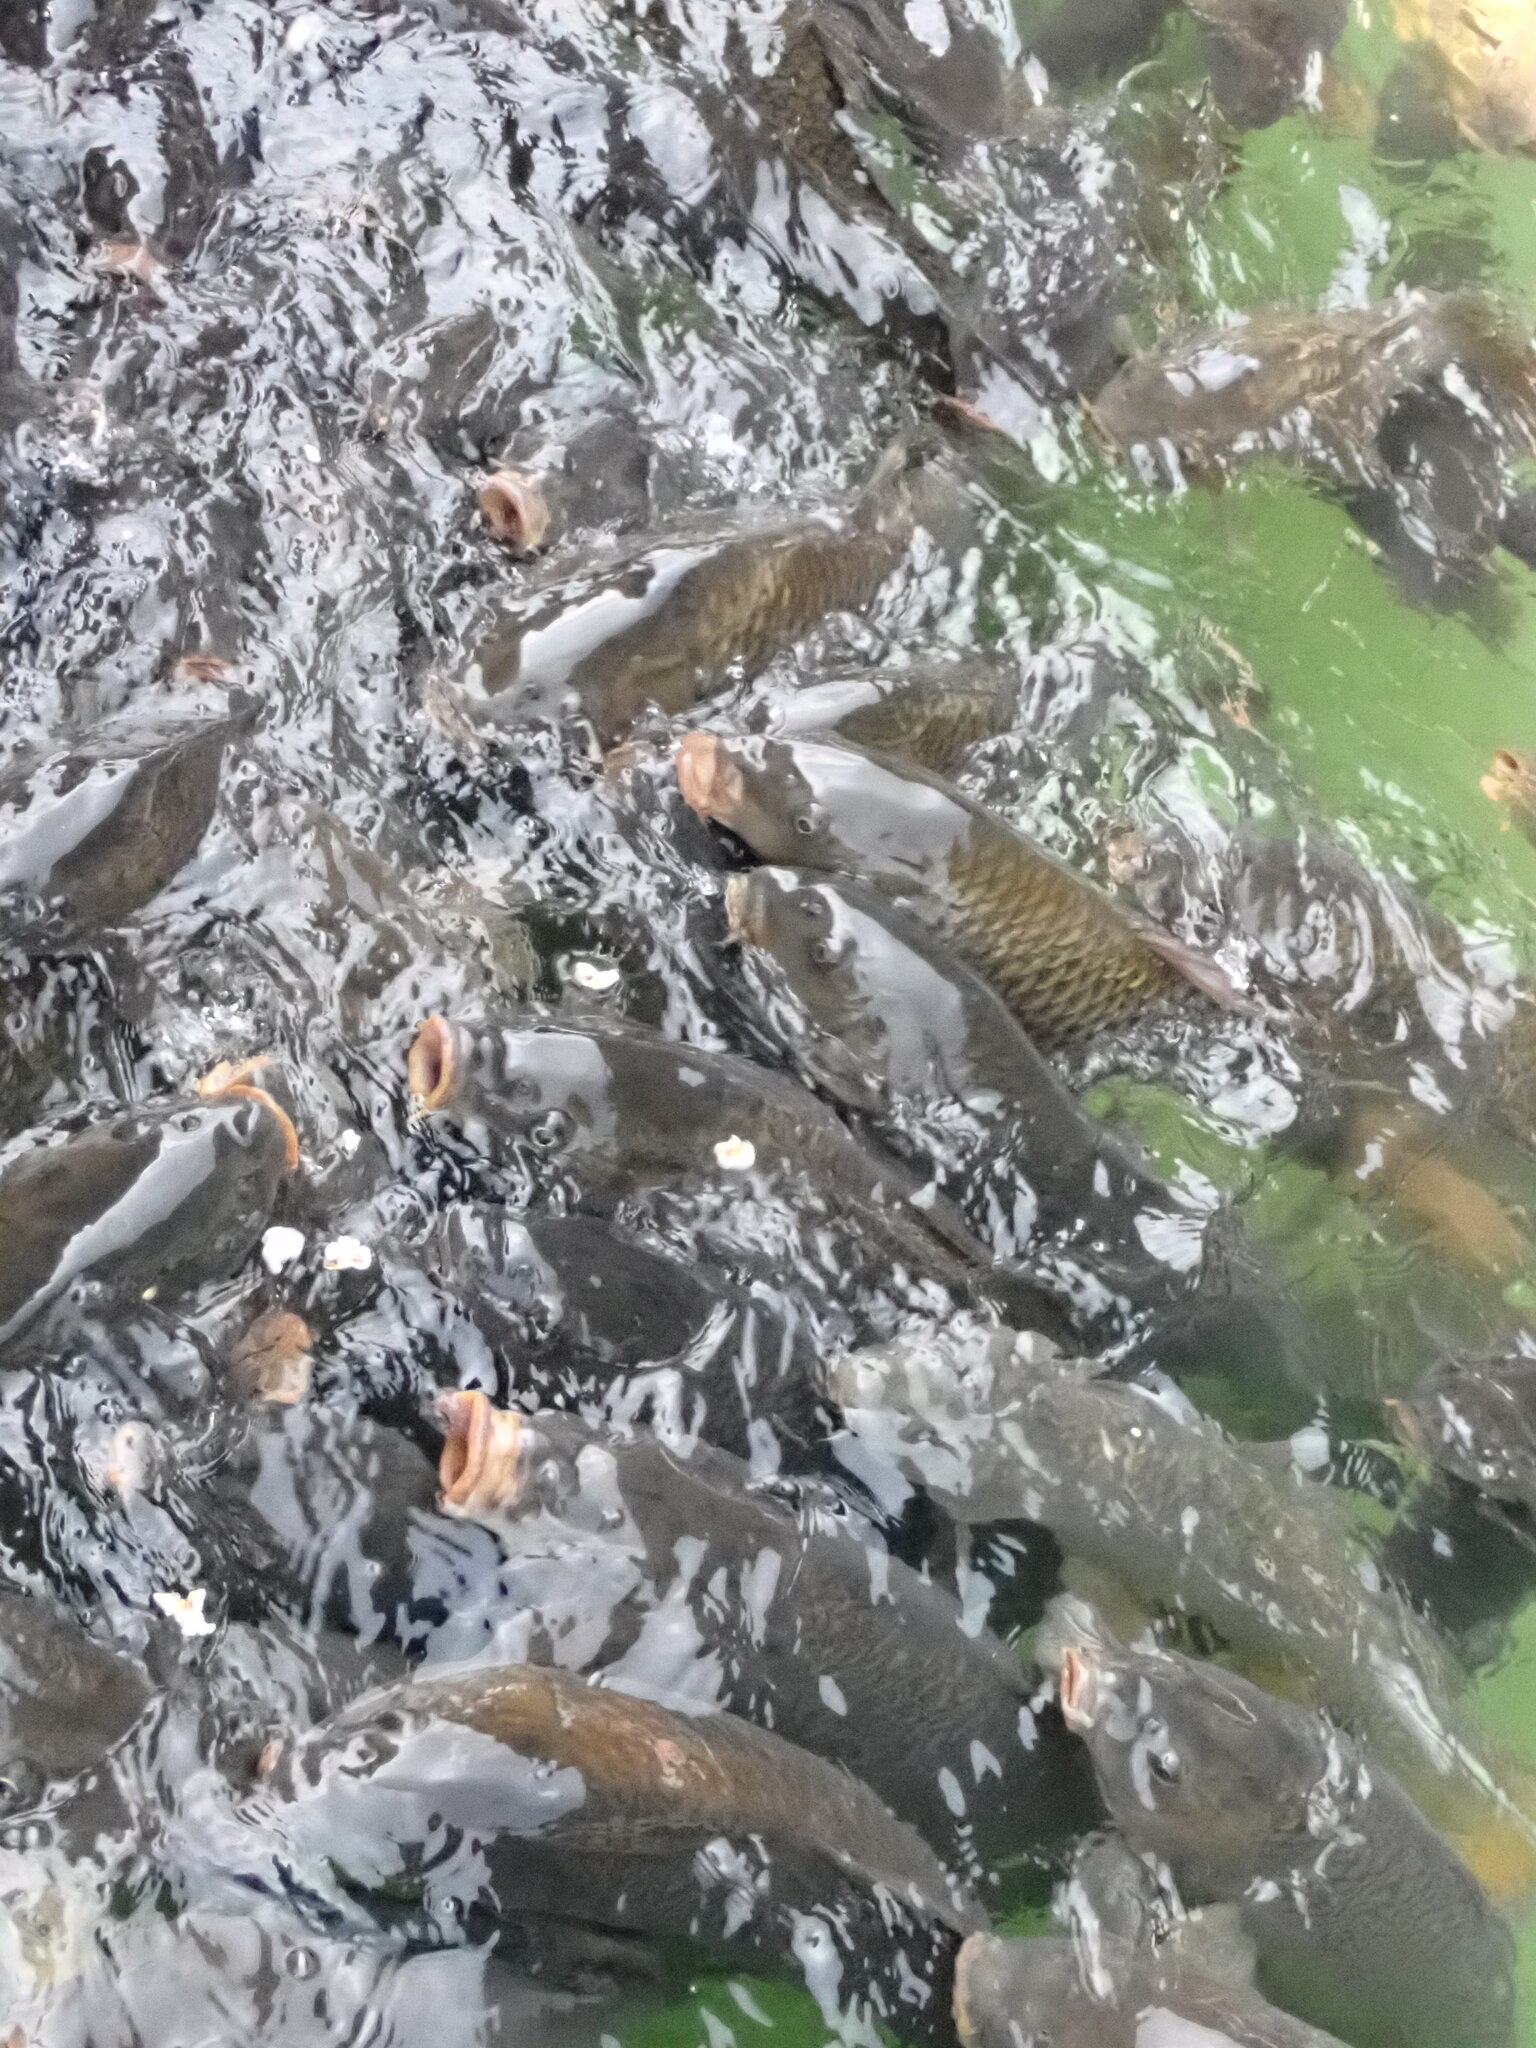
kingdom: Animalia
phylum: Chordata
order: Cypriniformes
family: Cyprinidae
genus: Cyprinus
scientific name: Cyprinus carpio
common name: Common carp
